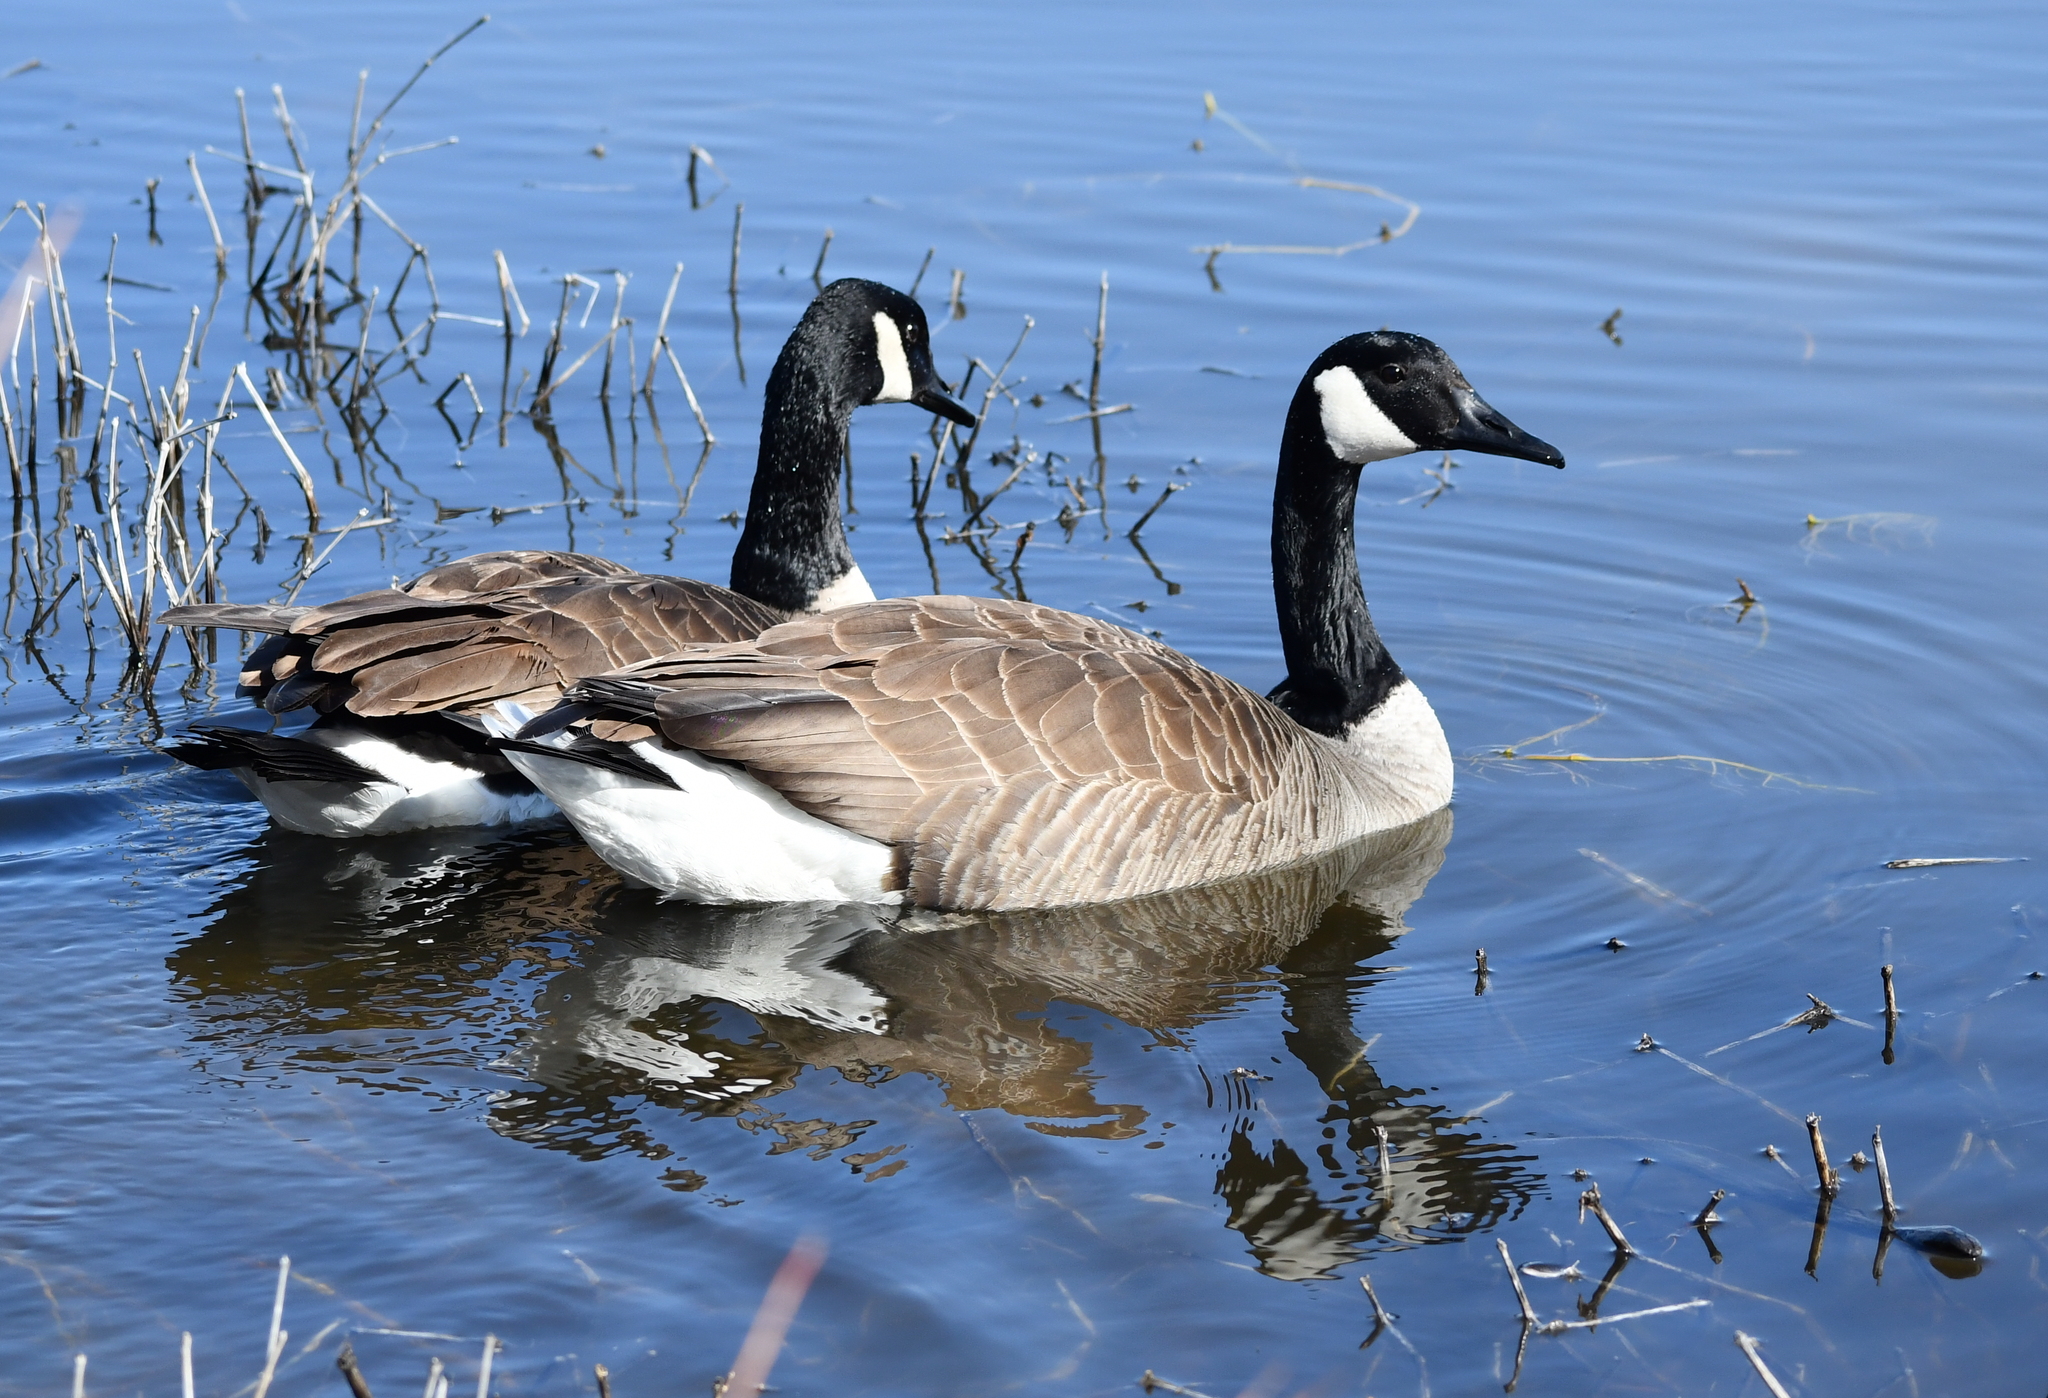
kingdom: Animalia
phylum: Chordata
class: Aves
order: Anseriformes
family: Anatidae
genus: Branta
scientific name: Branta canadensis
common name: Canada goose
